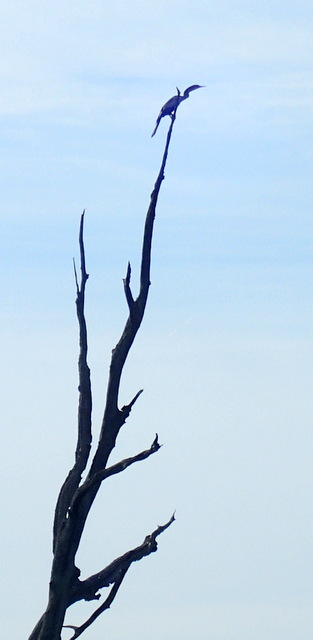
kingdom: Animalia
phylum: Chordata
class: Aves
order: Suliformes
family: Anhingidae
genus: Anhinga
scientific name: Anhinga anhinga
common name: Anhinga
